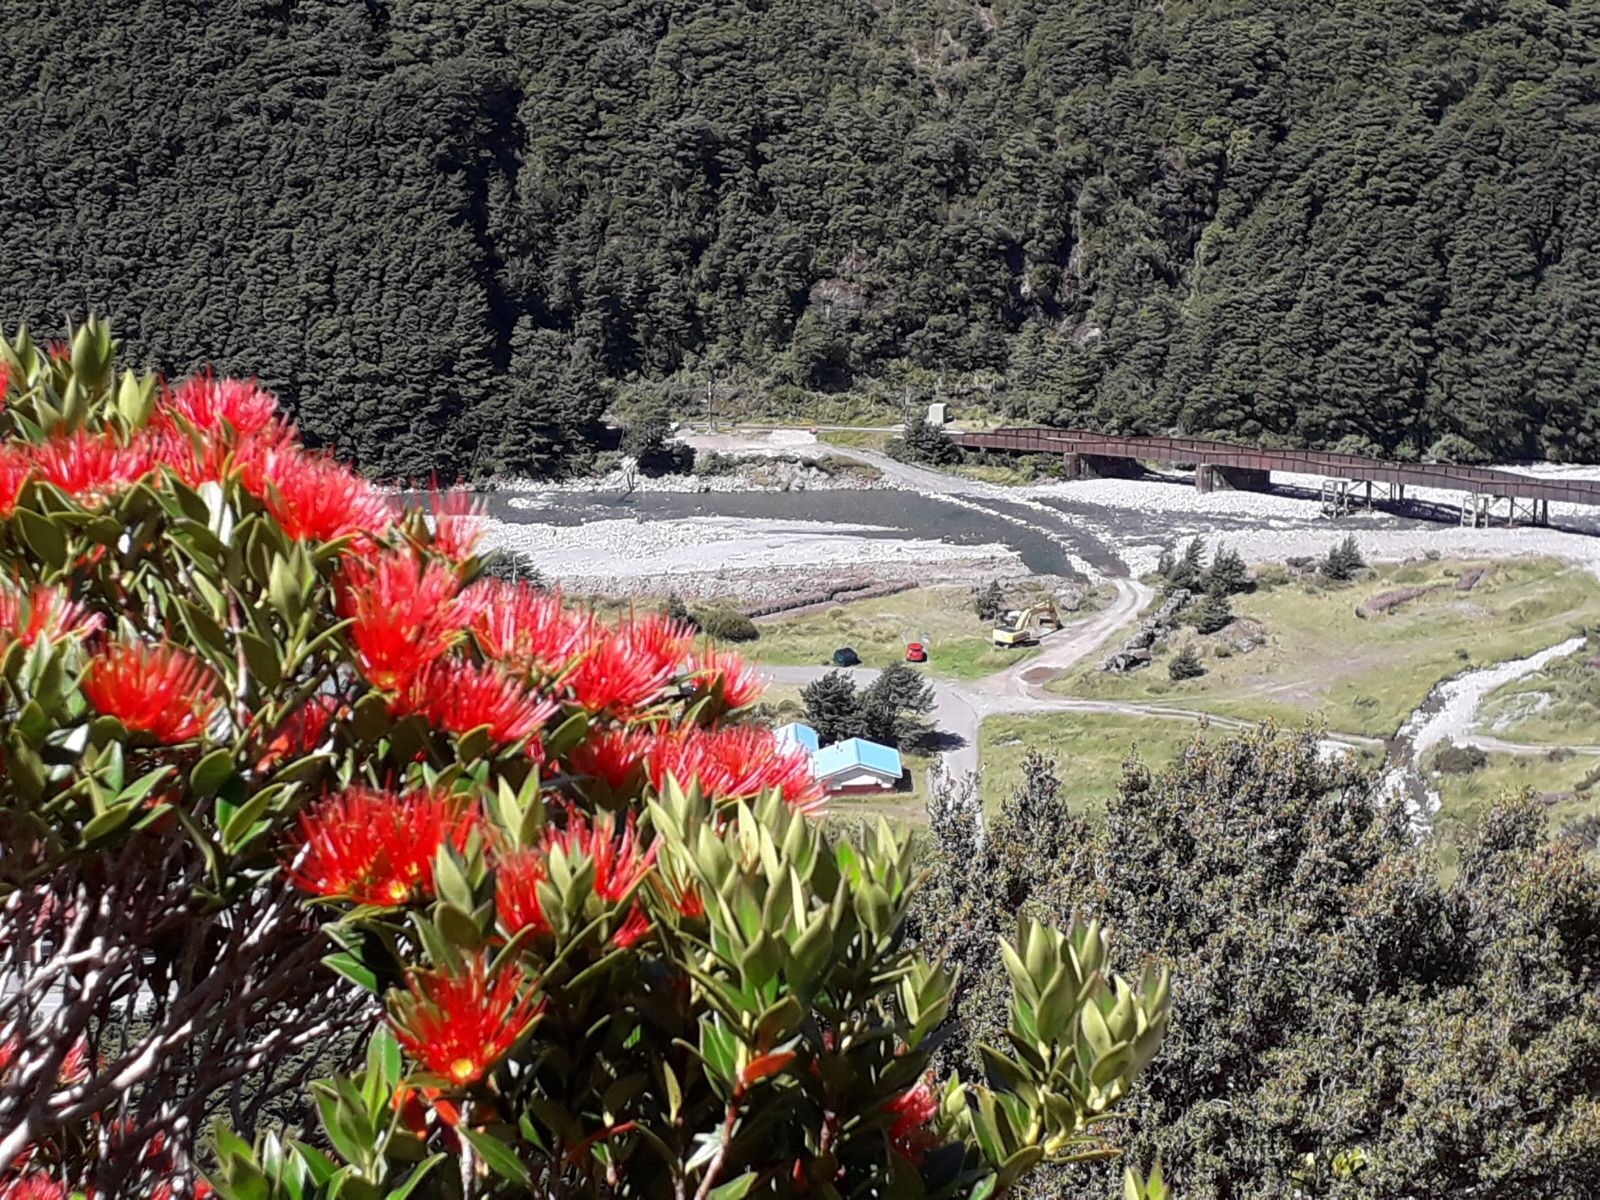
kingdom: Plantae
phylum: Tracheophyta
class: Magnoliopsida
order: Myrtales
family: Myrtaceae
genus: Metrosideros
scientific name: Metrosideros umbellata
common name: Southern rata
